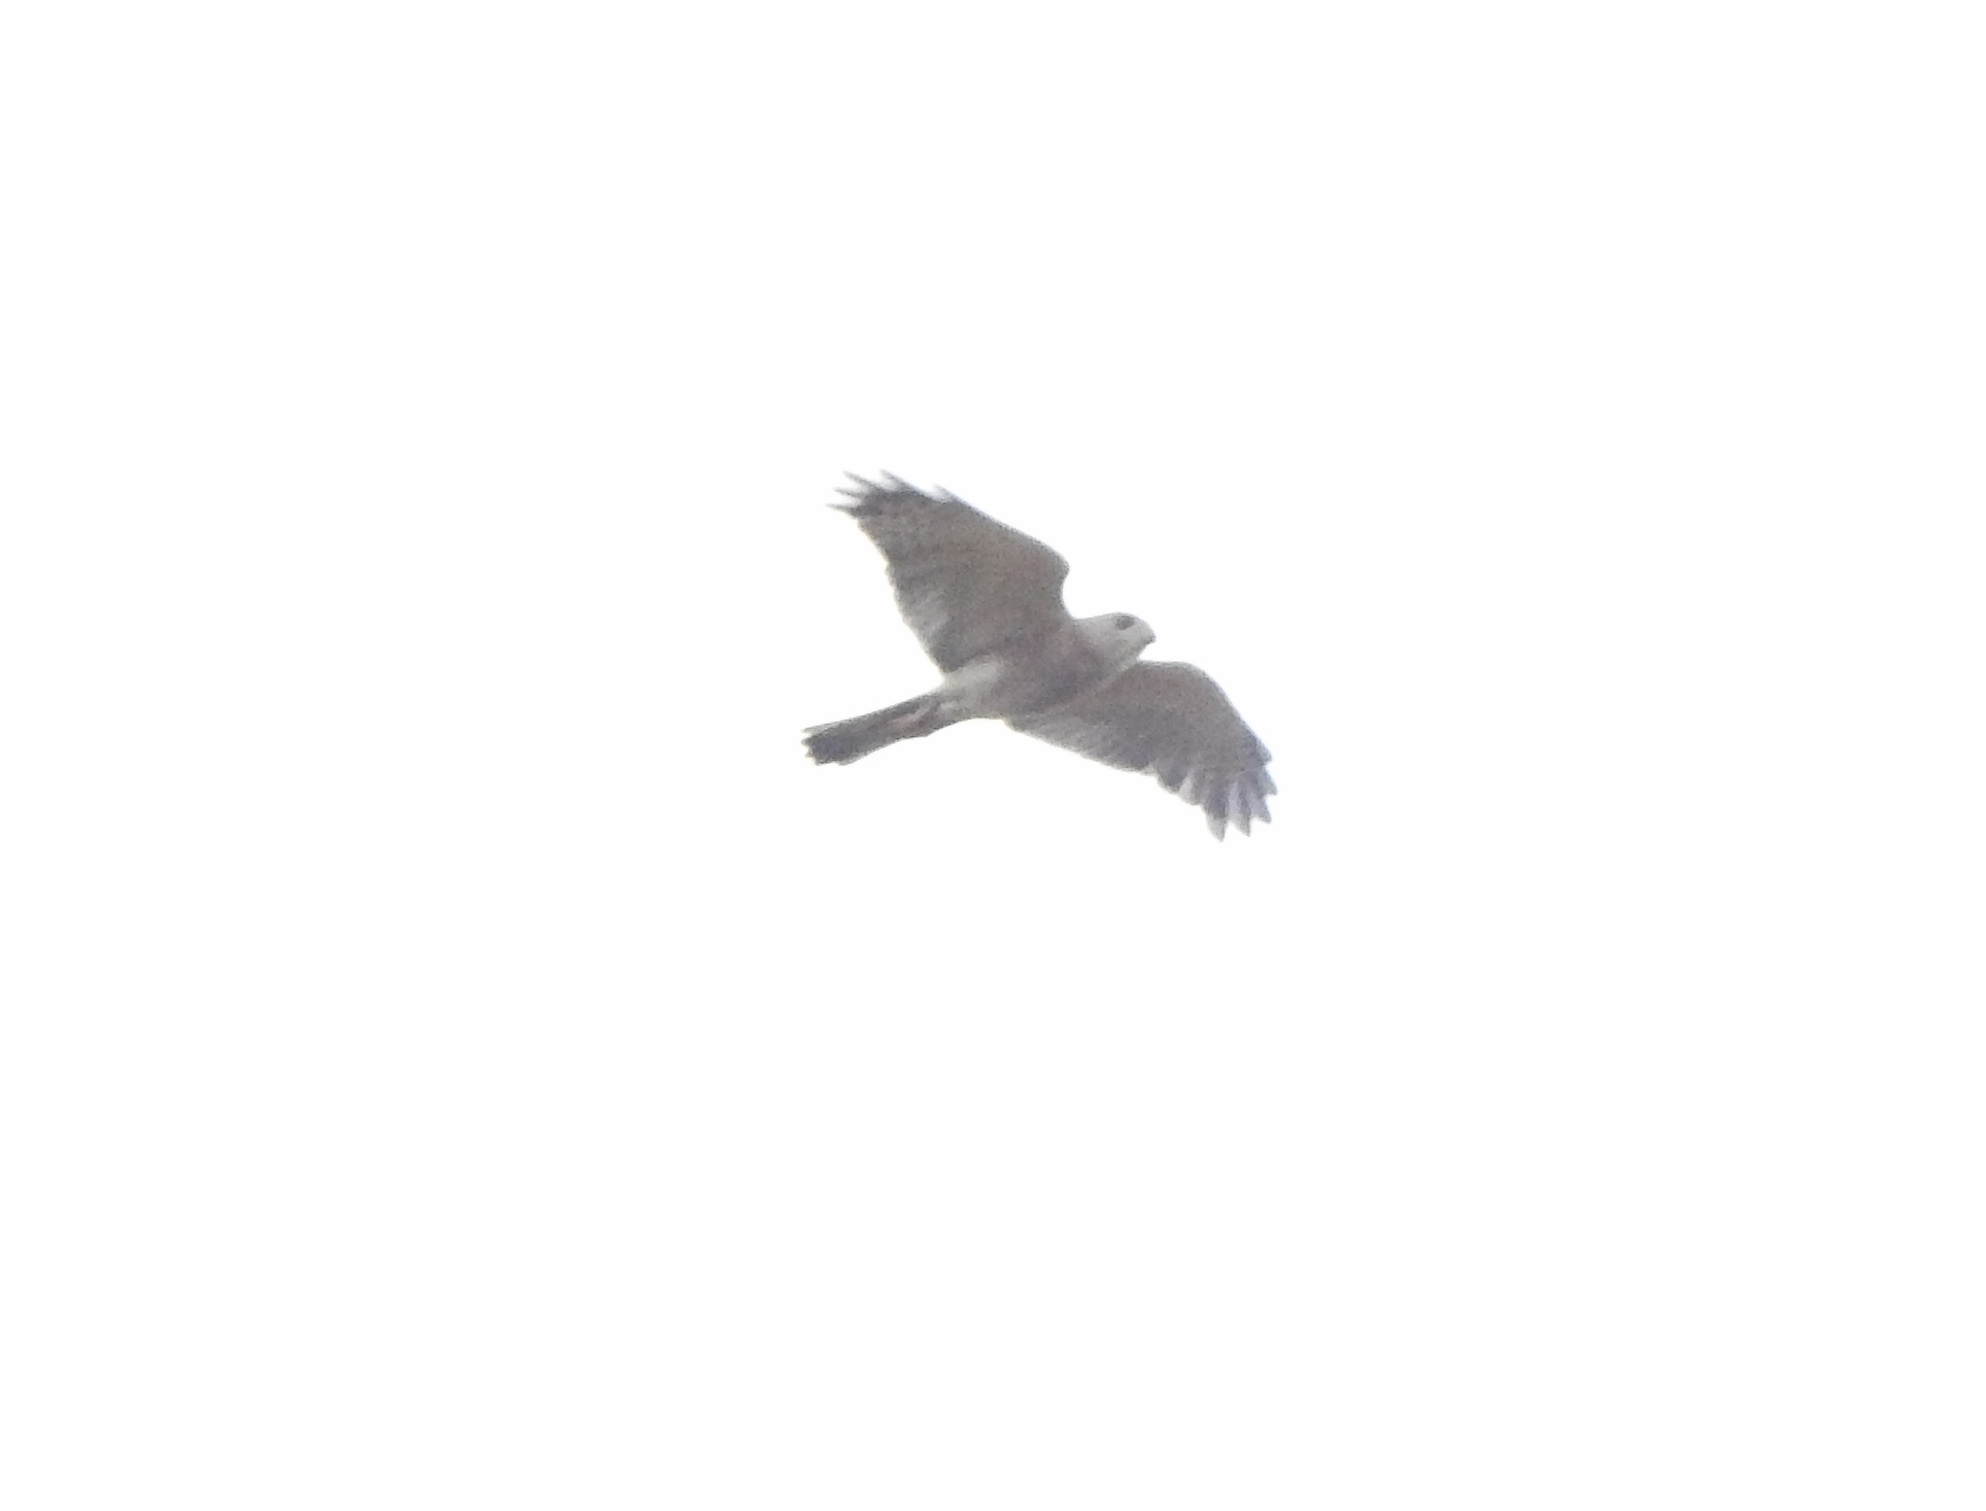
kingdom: Animalia
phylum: Chordata
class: Aves
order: Accipitriformes
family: Accipitridae
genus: Accipiter
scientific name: Accipiter badius
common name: Shikra
